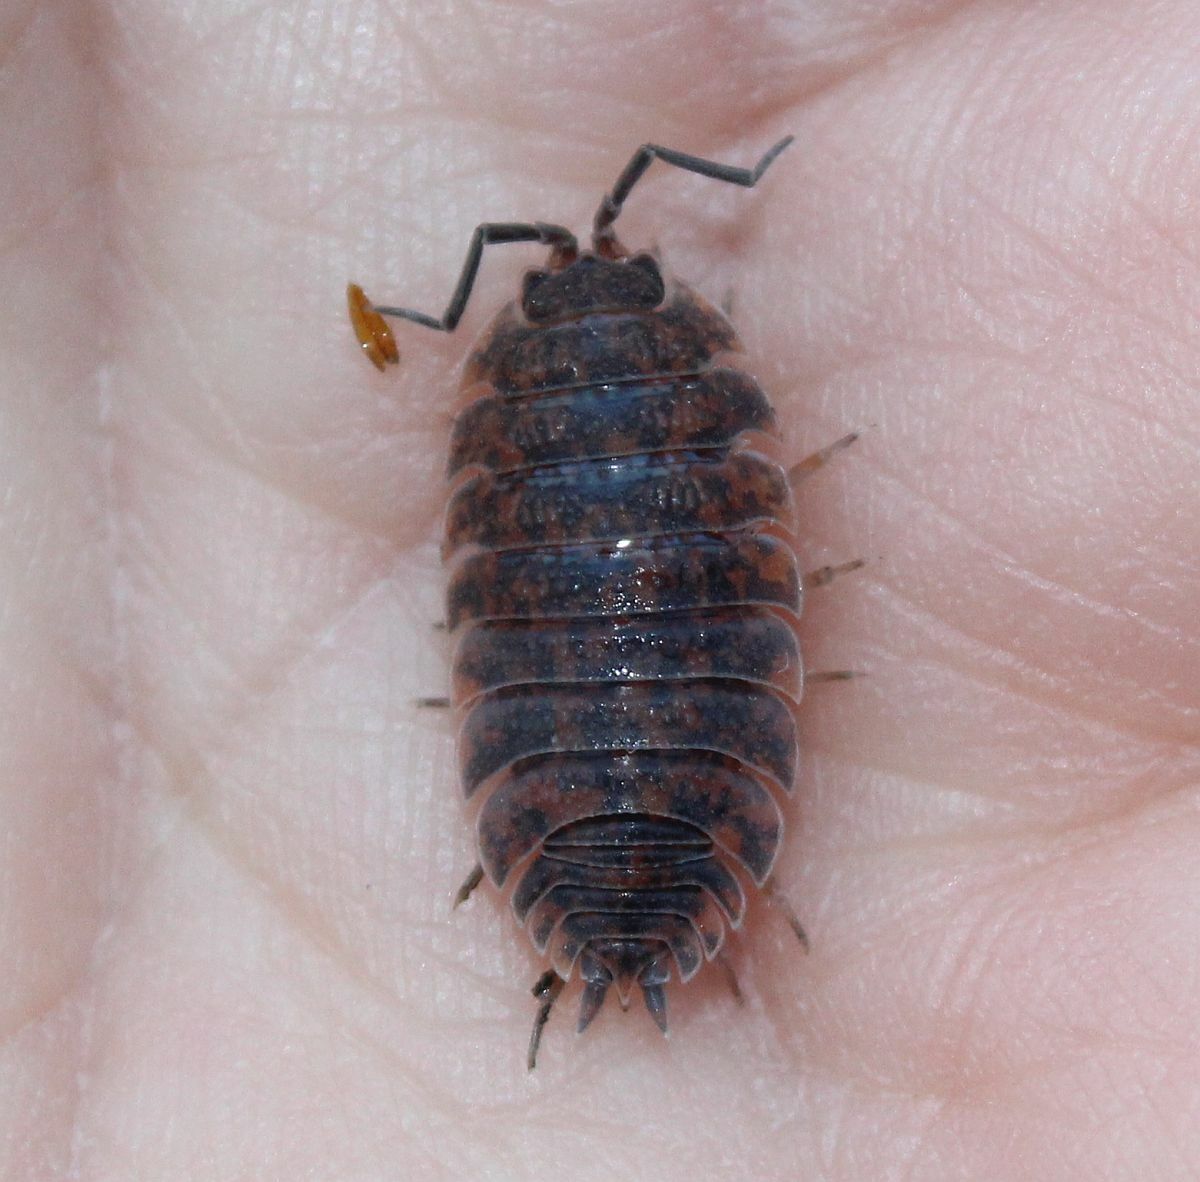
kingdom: Animalia
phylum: Arthropoda
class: Malacostraca
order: Isopoda
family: Porcellionidae
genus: Porcellio
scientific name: Porcellio scaber
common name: Common rough woodlouse
